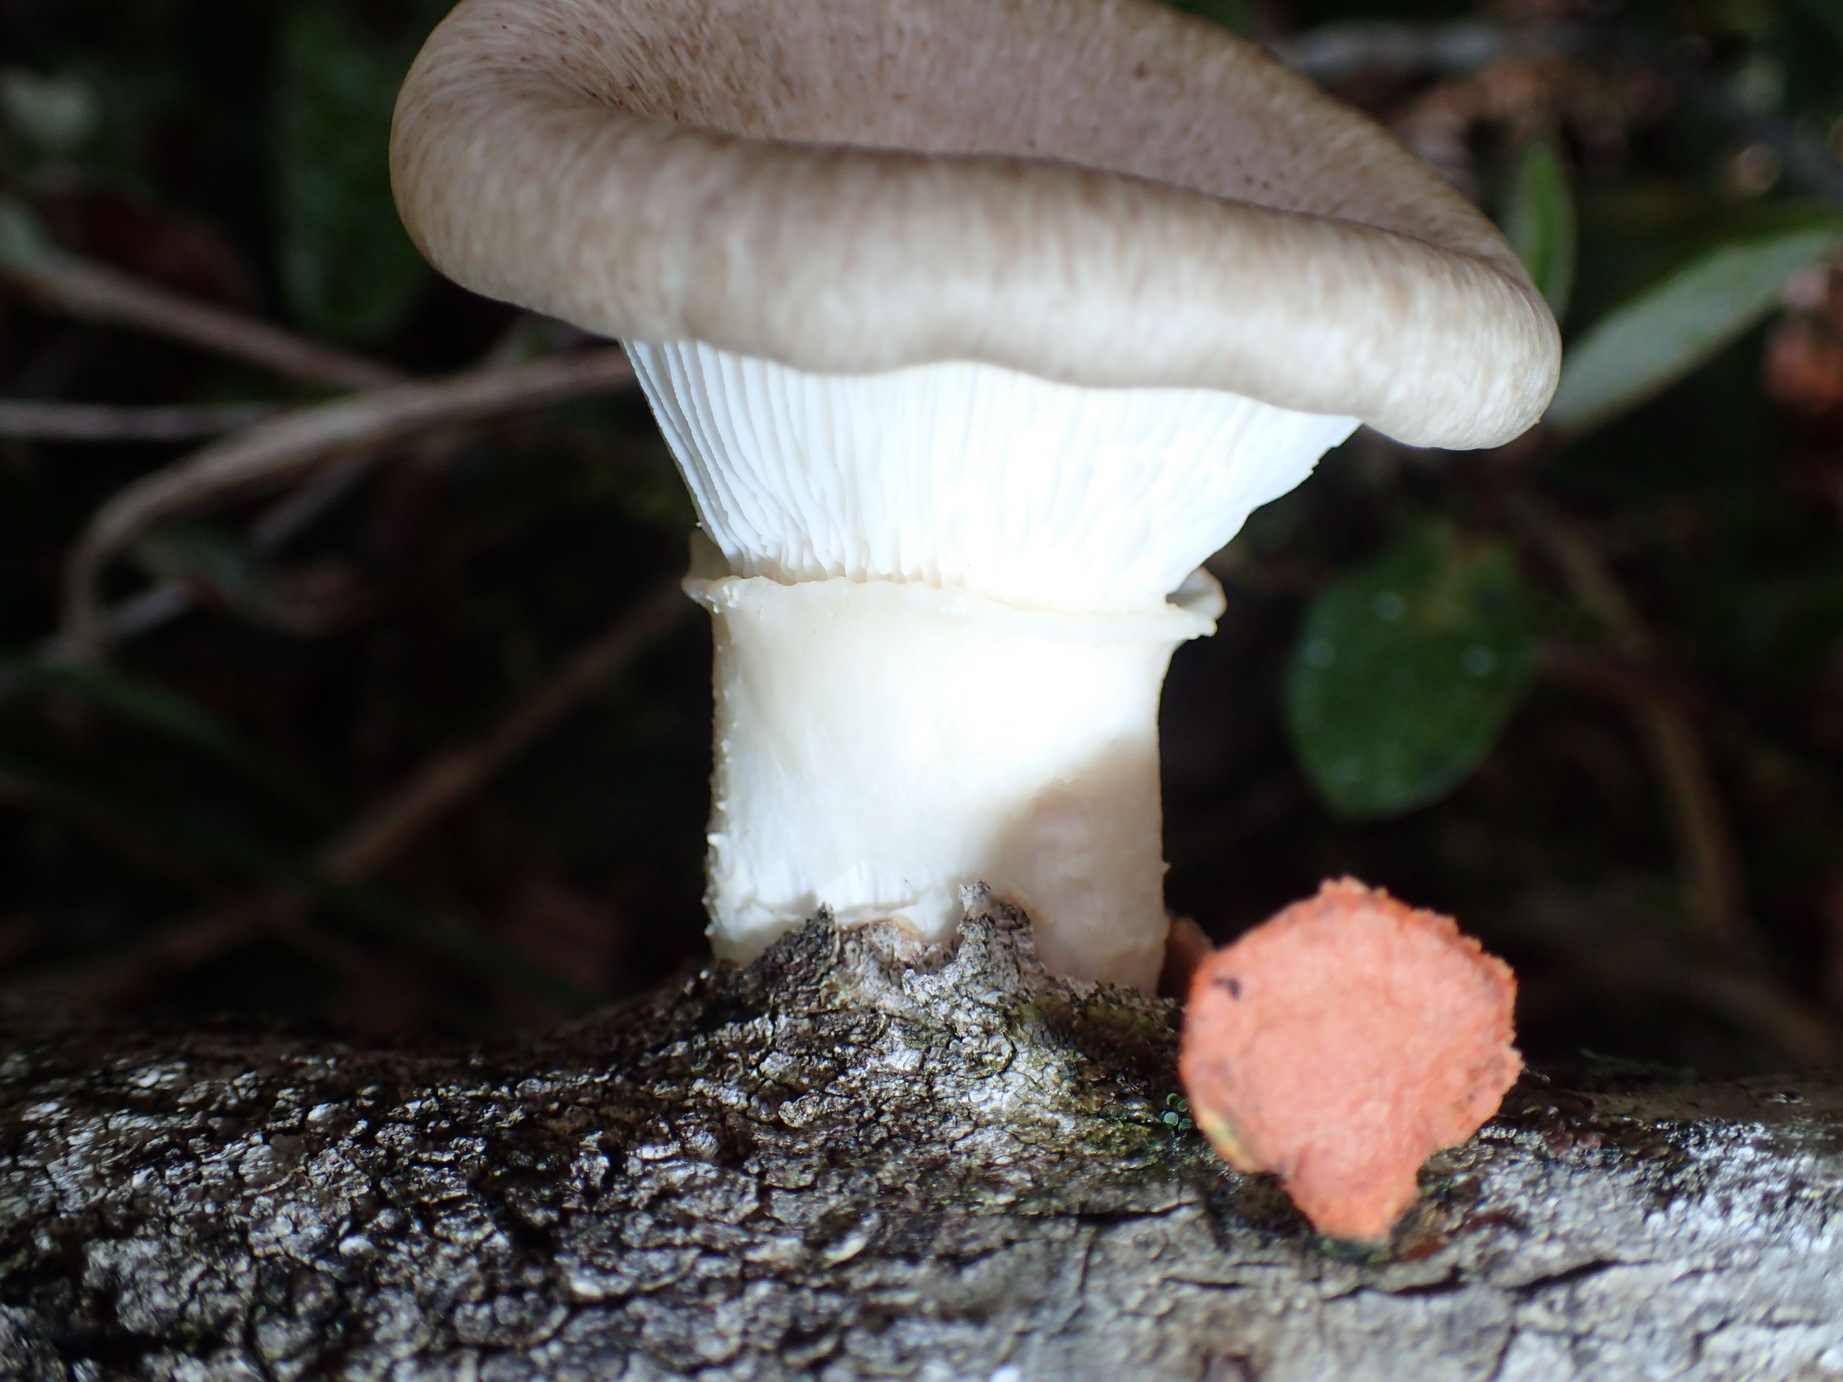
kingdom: Fungi
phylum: Basidiomycota
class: Agaricomycetes
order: Polyporales
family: Polyporaceae
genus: Lentinus
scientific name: Lentinus sajor-caju
